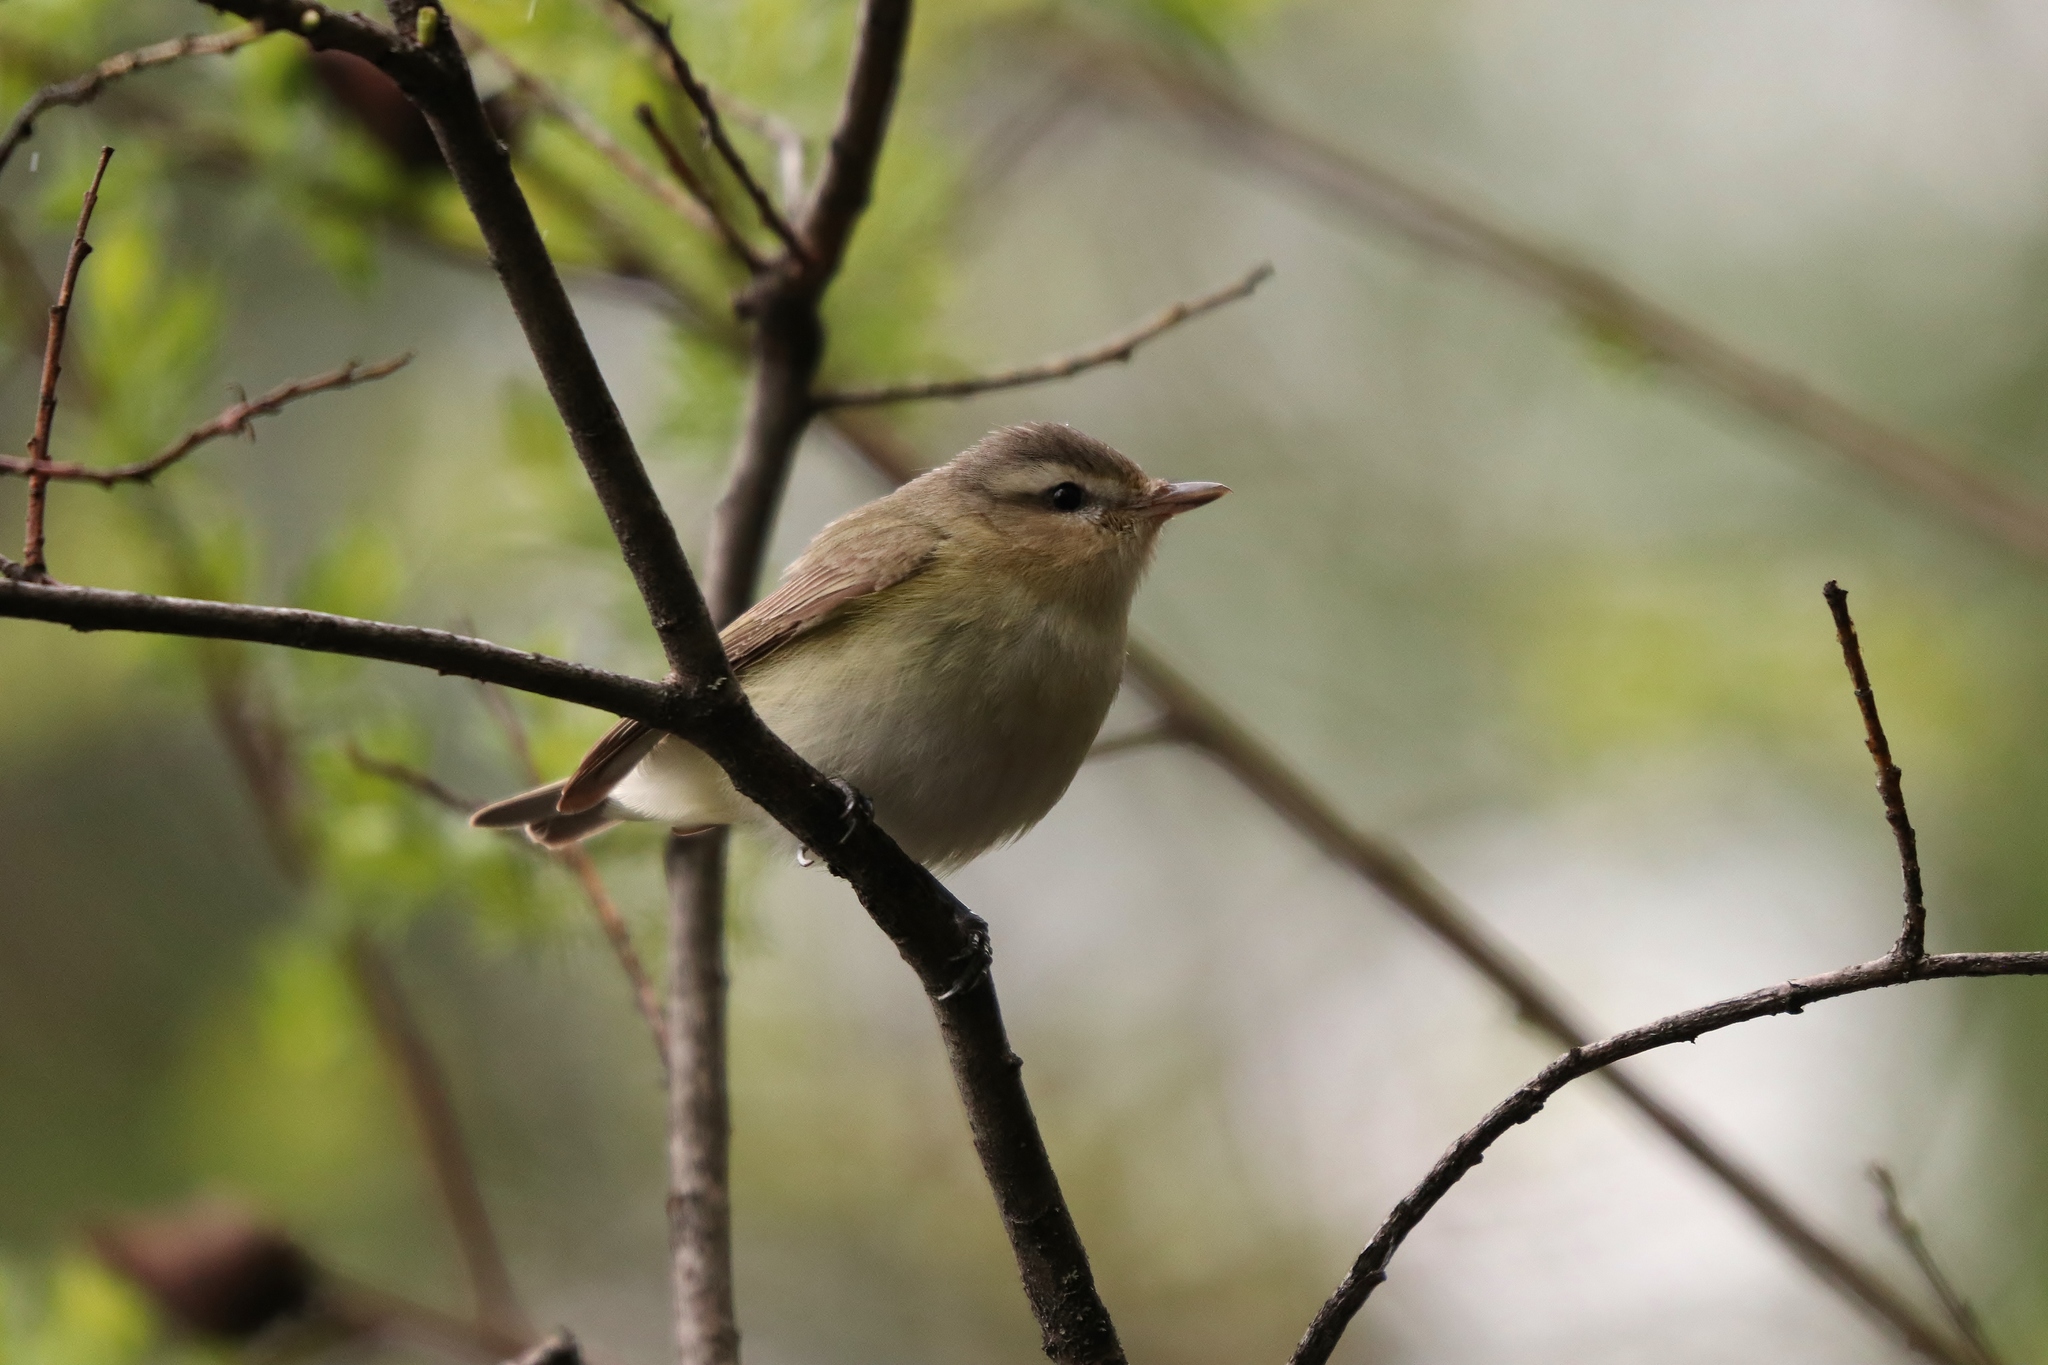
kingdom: Animalia
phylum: Chordata
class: Aves
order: Passeriformes
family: Vireonidae
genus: Vireo
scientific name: Vireo gilvus
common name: Warbling vireo
